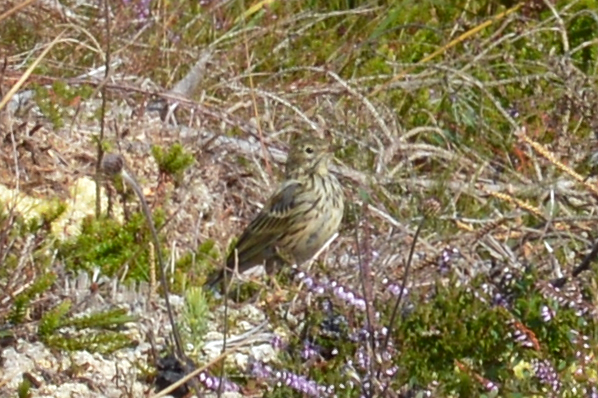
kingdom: Animalia
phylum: Chordata
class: Aves
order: Passeriformes
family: Motacillidae
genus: Anthus
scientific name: Anthus pratensis
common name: Meadow pipit
